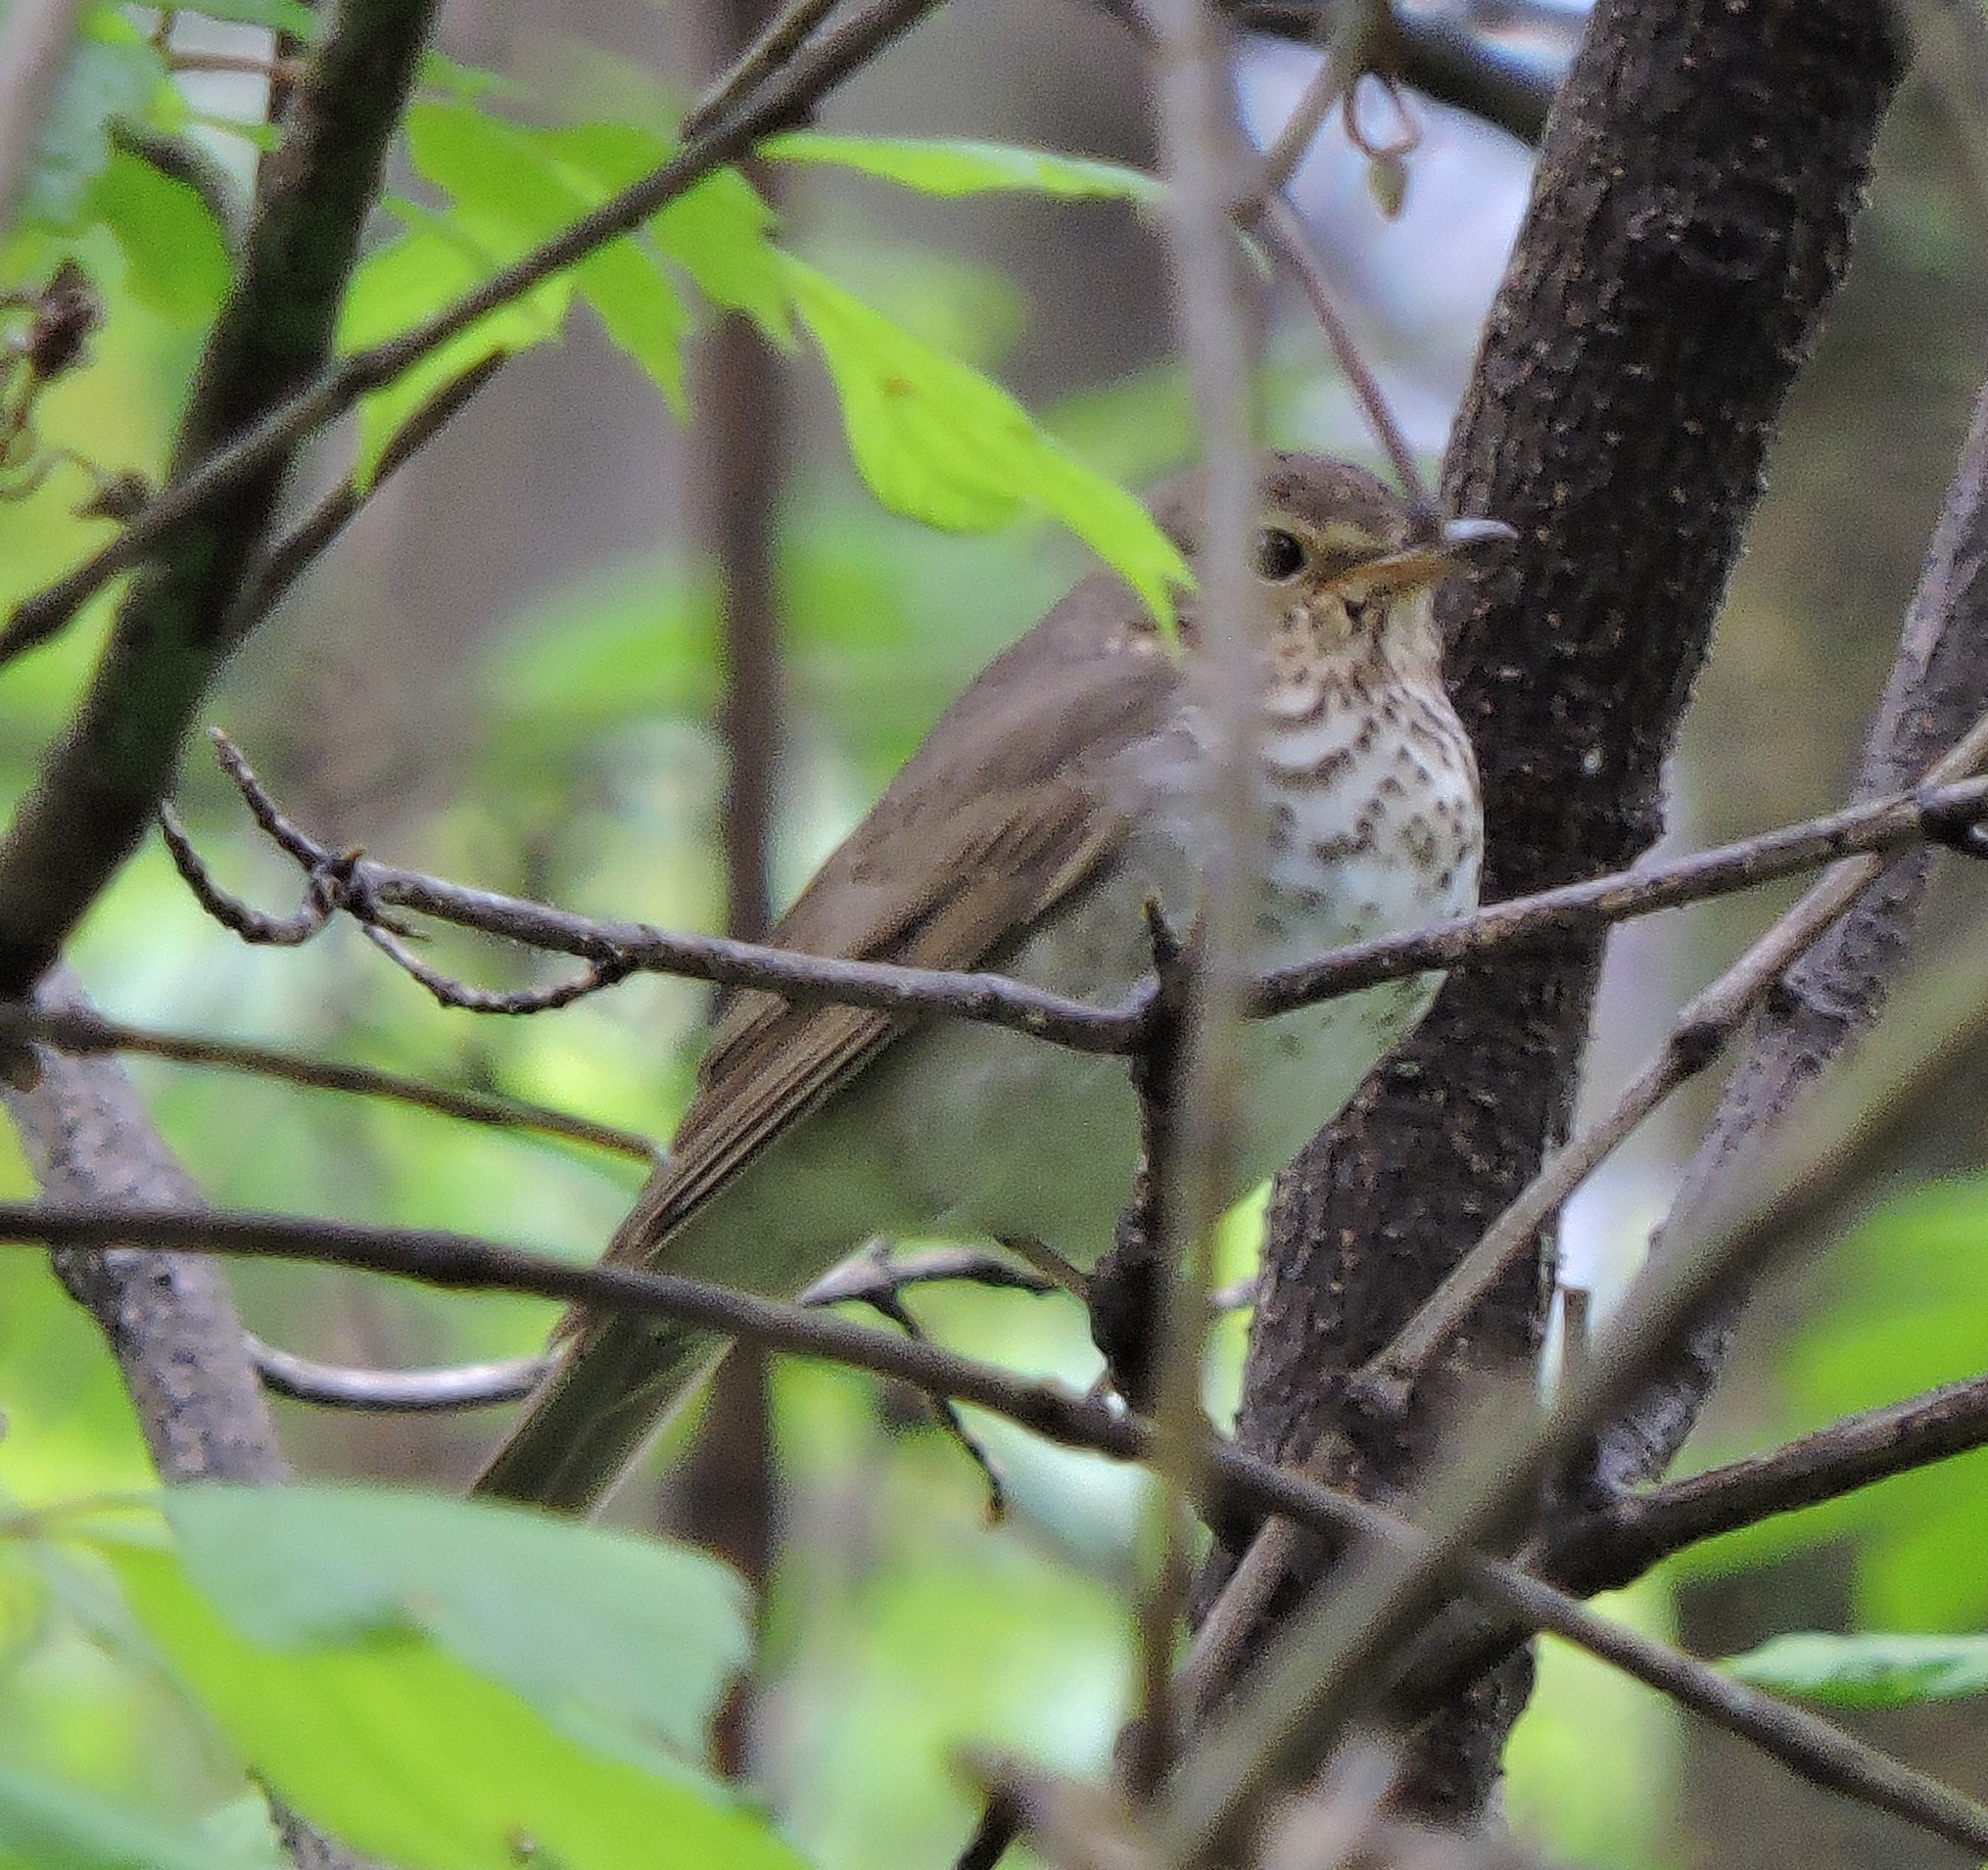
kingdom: Animalia
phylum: Chordata
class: Aves
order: Passeriformes
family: Turdidae
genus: Catharus
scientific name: Catharus ustulatus
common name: Swainson's thrush
